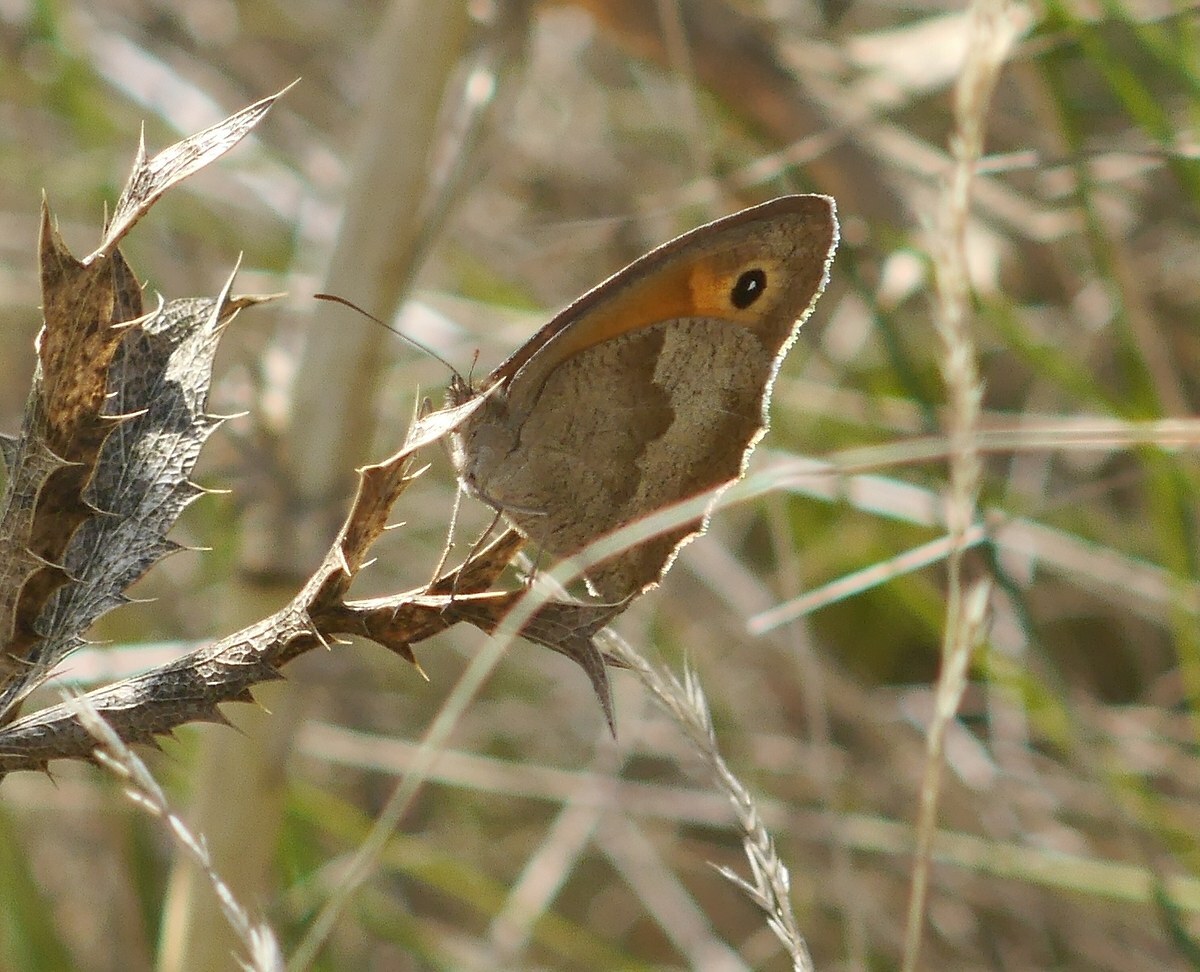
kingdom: Animalia
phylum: Arthropoda
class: Insecta
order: Lepidoptera
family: Nymphalidae
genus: Maniola
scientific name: Maniola jurtina
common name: Meadow brown
